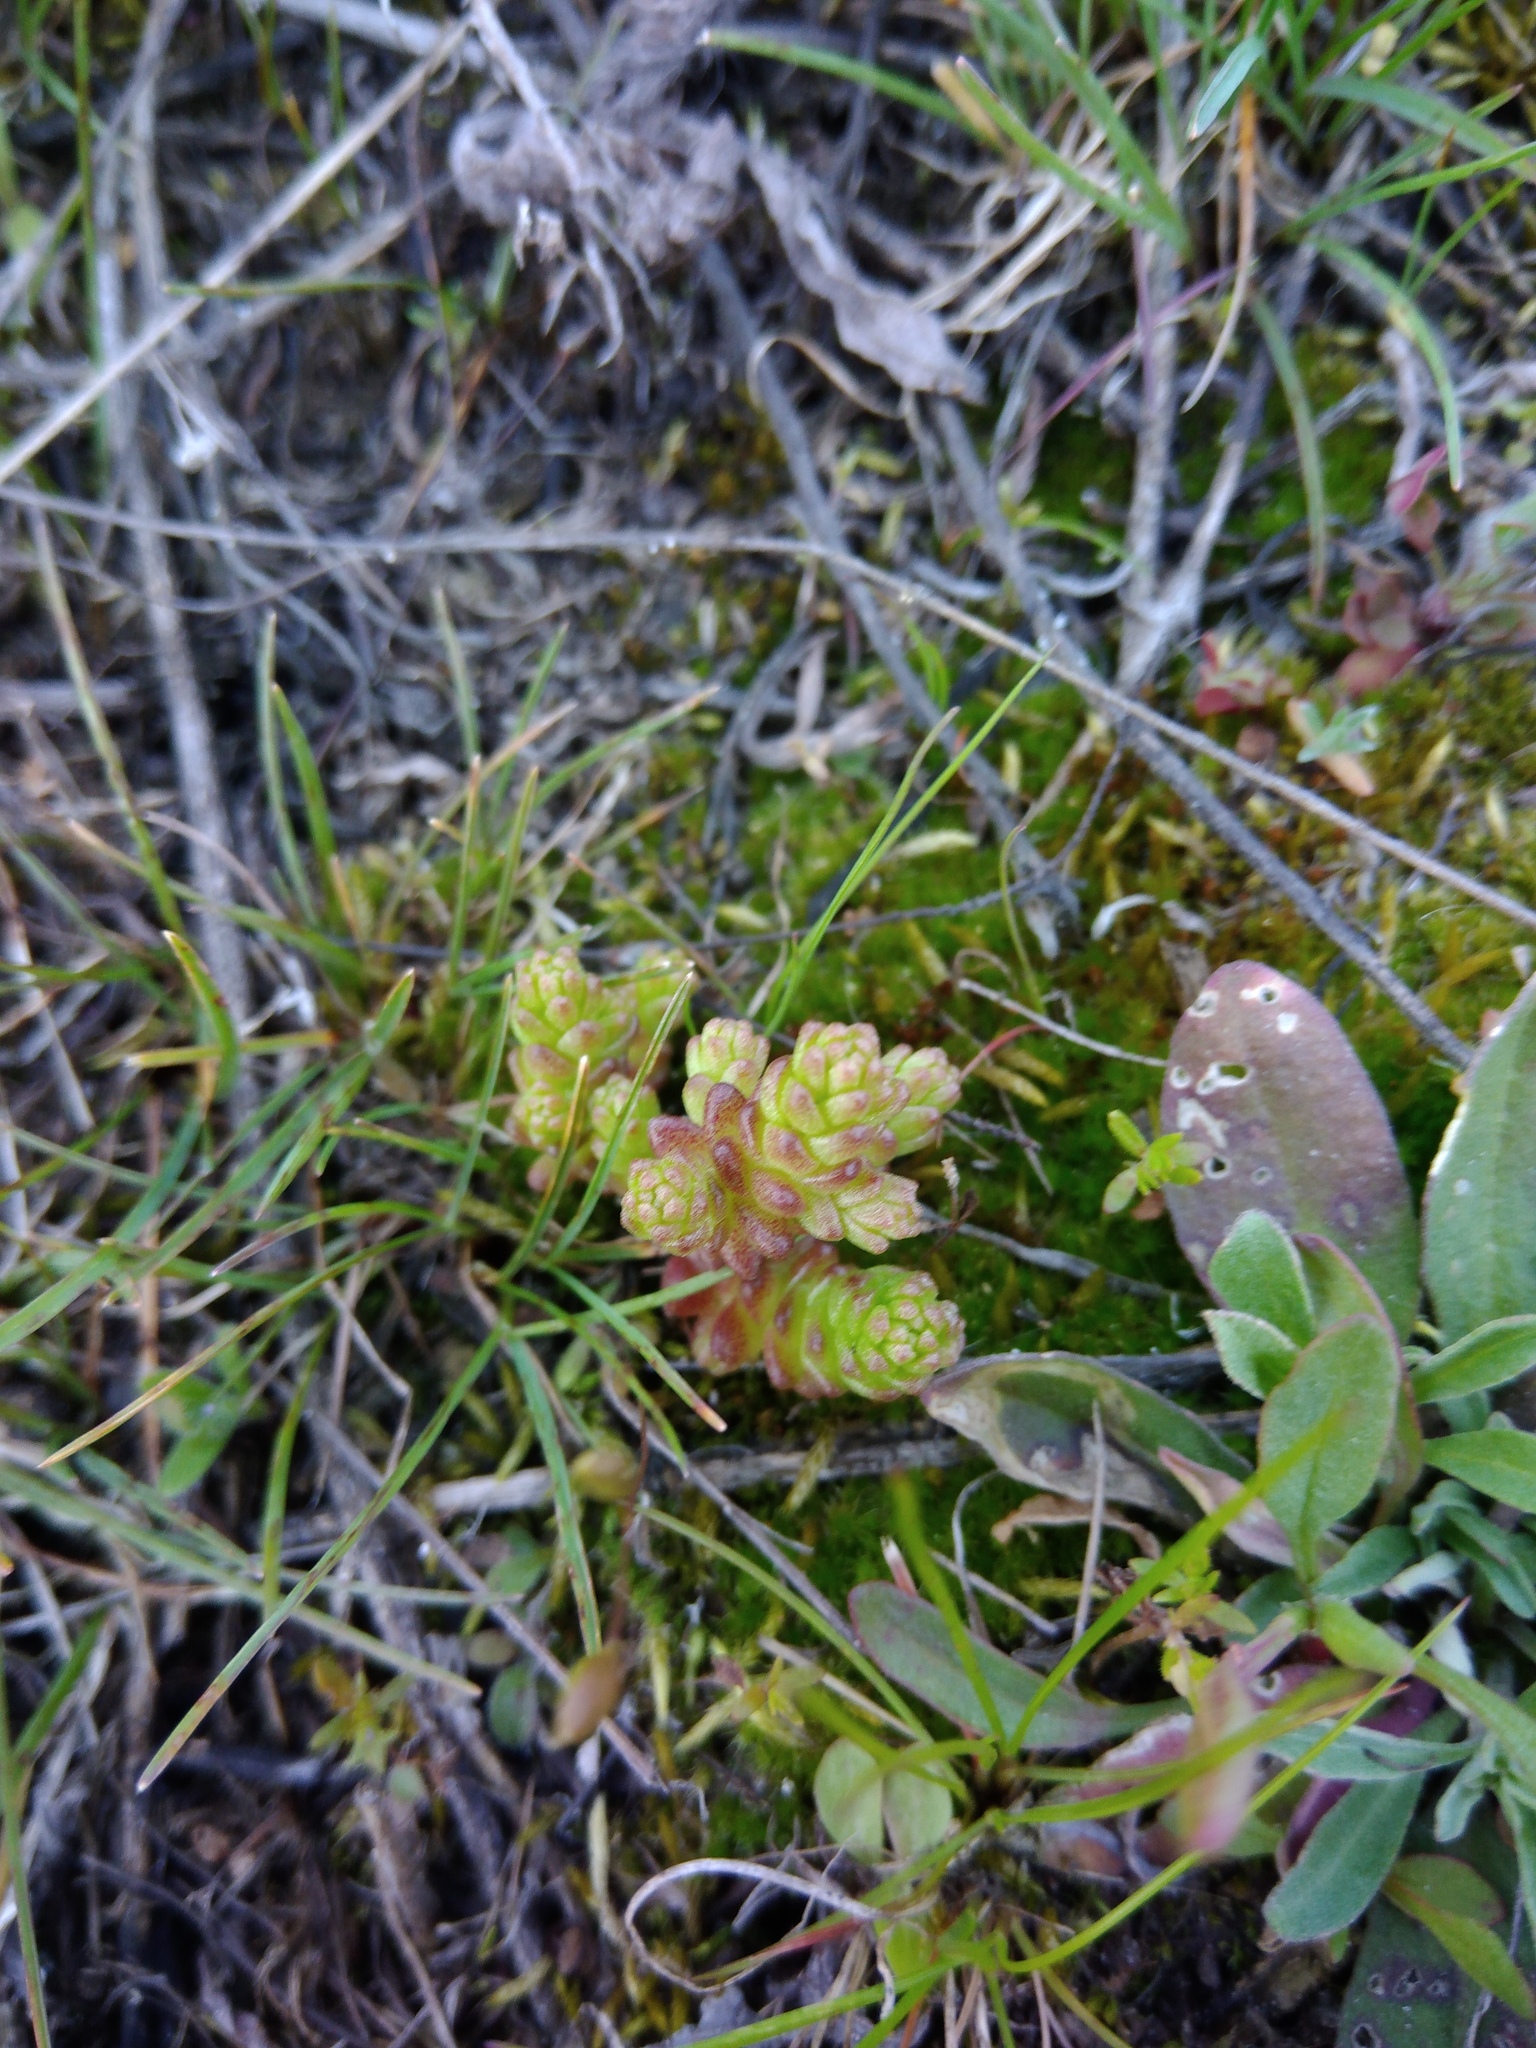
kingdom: Plantae
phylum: Tracheophyta
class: Magnoliopsida
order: Saxifragales
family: Crassulaceae
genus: Sedum
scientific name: Sedum acre
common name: Biting stonecrop
